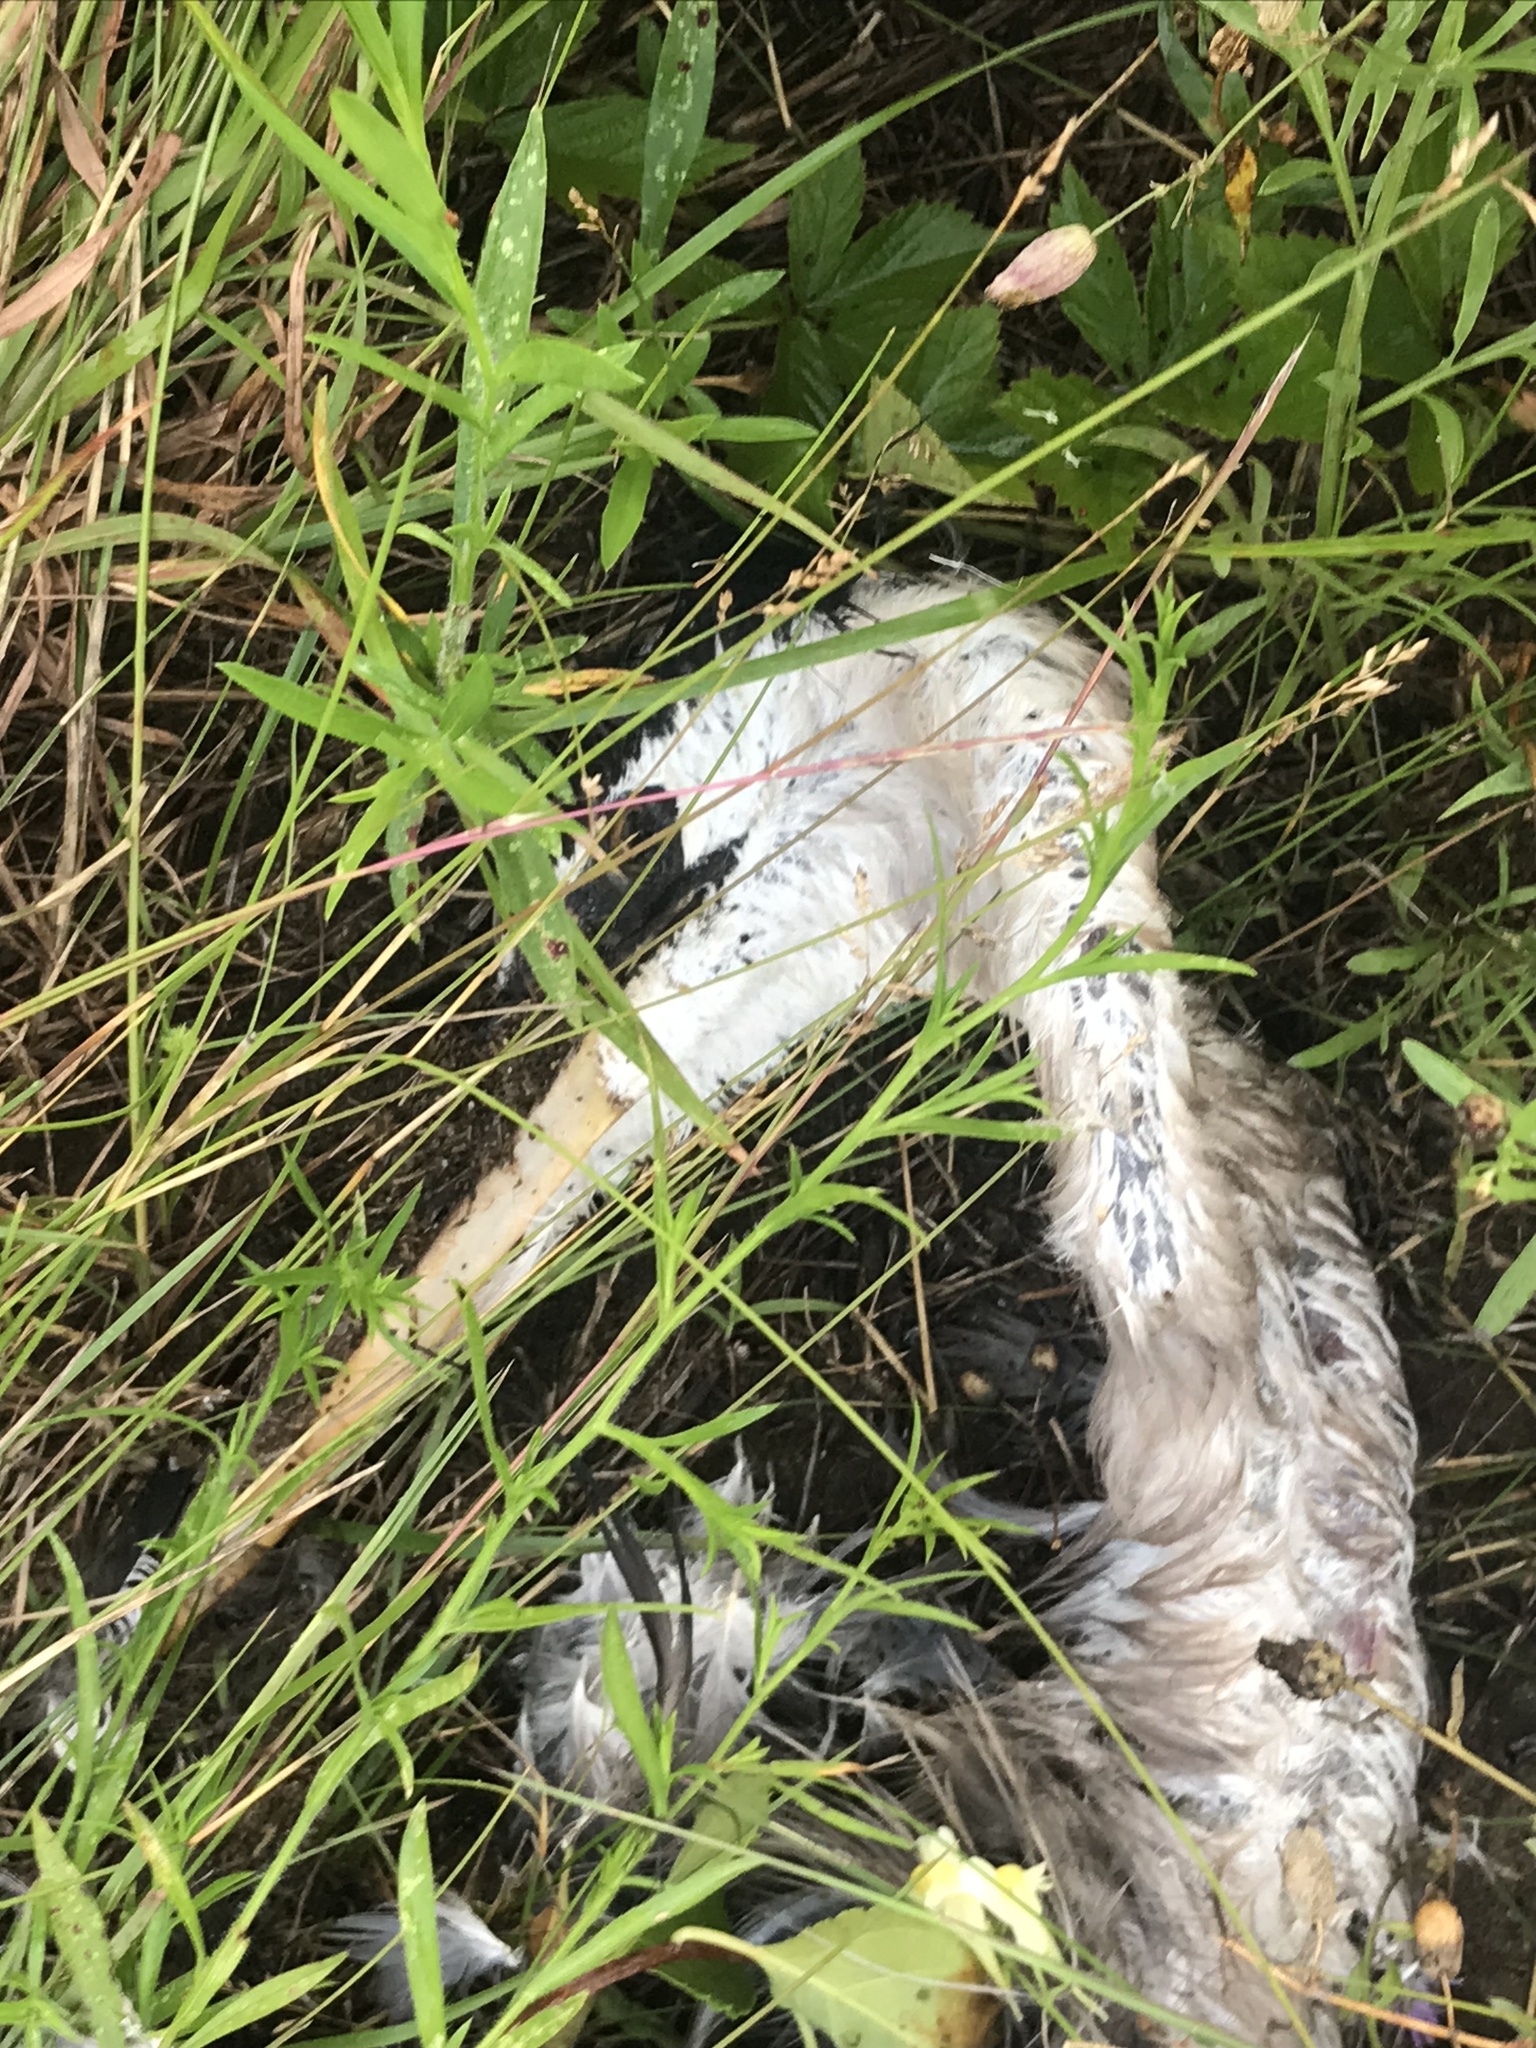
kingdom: Animalia
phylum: Chordata
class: Aves
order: Pelecaniformes
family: Ardeidae
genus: Ardea
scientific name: Ardea herodias
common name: Great blue heron
